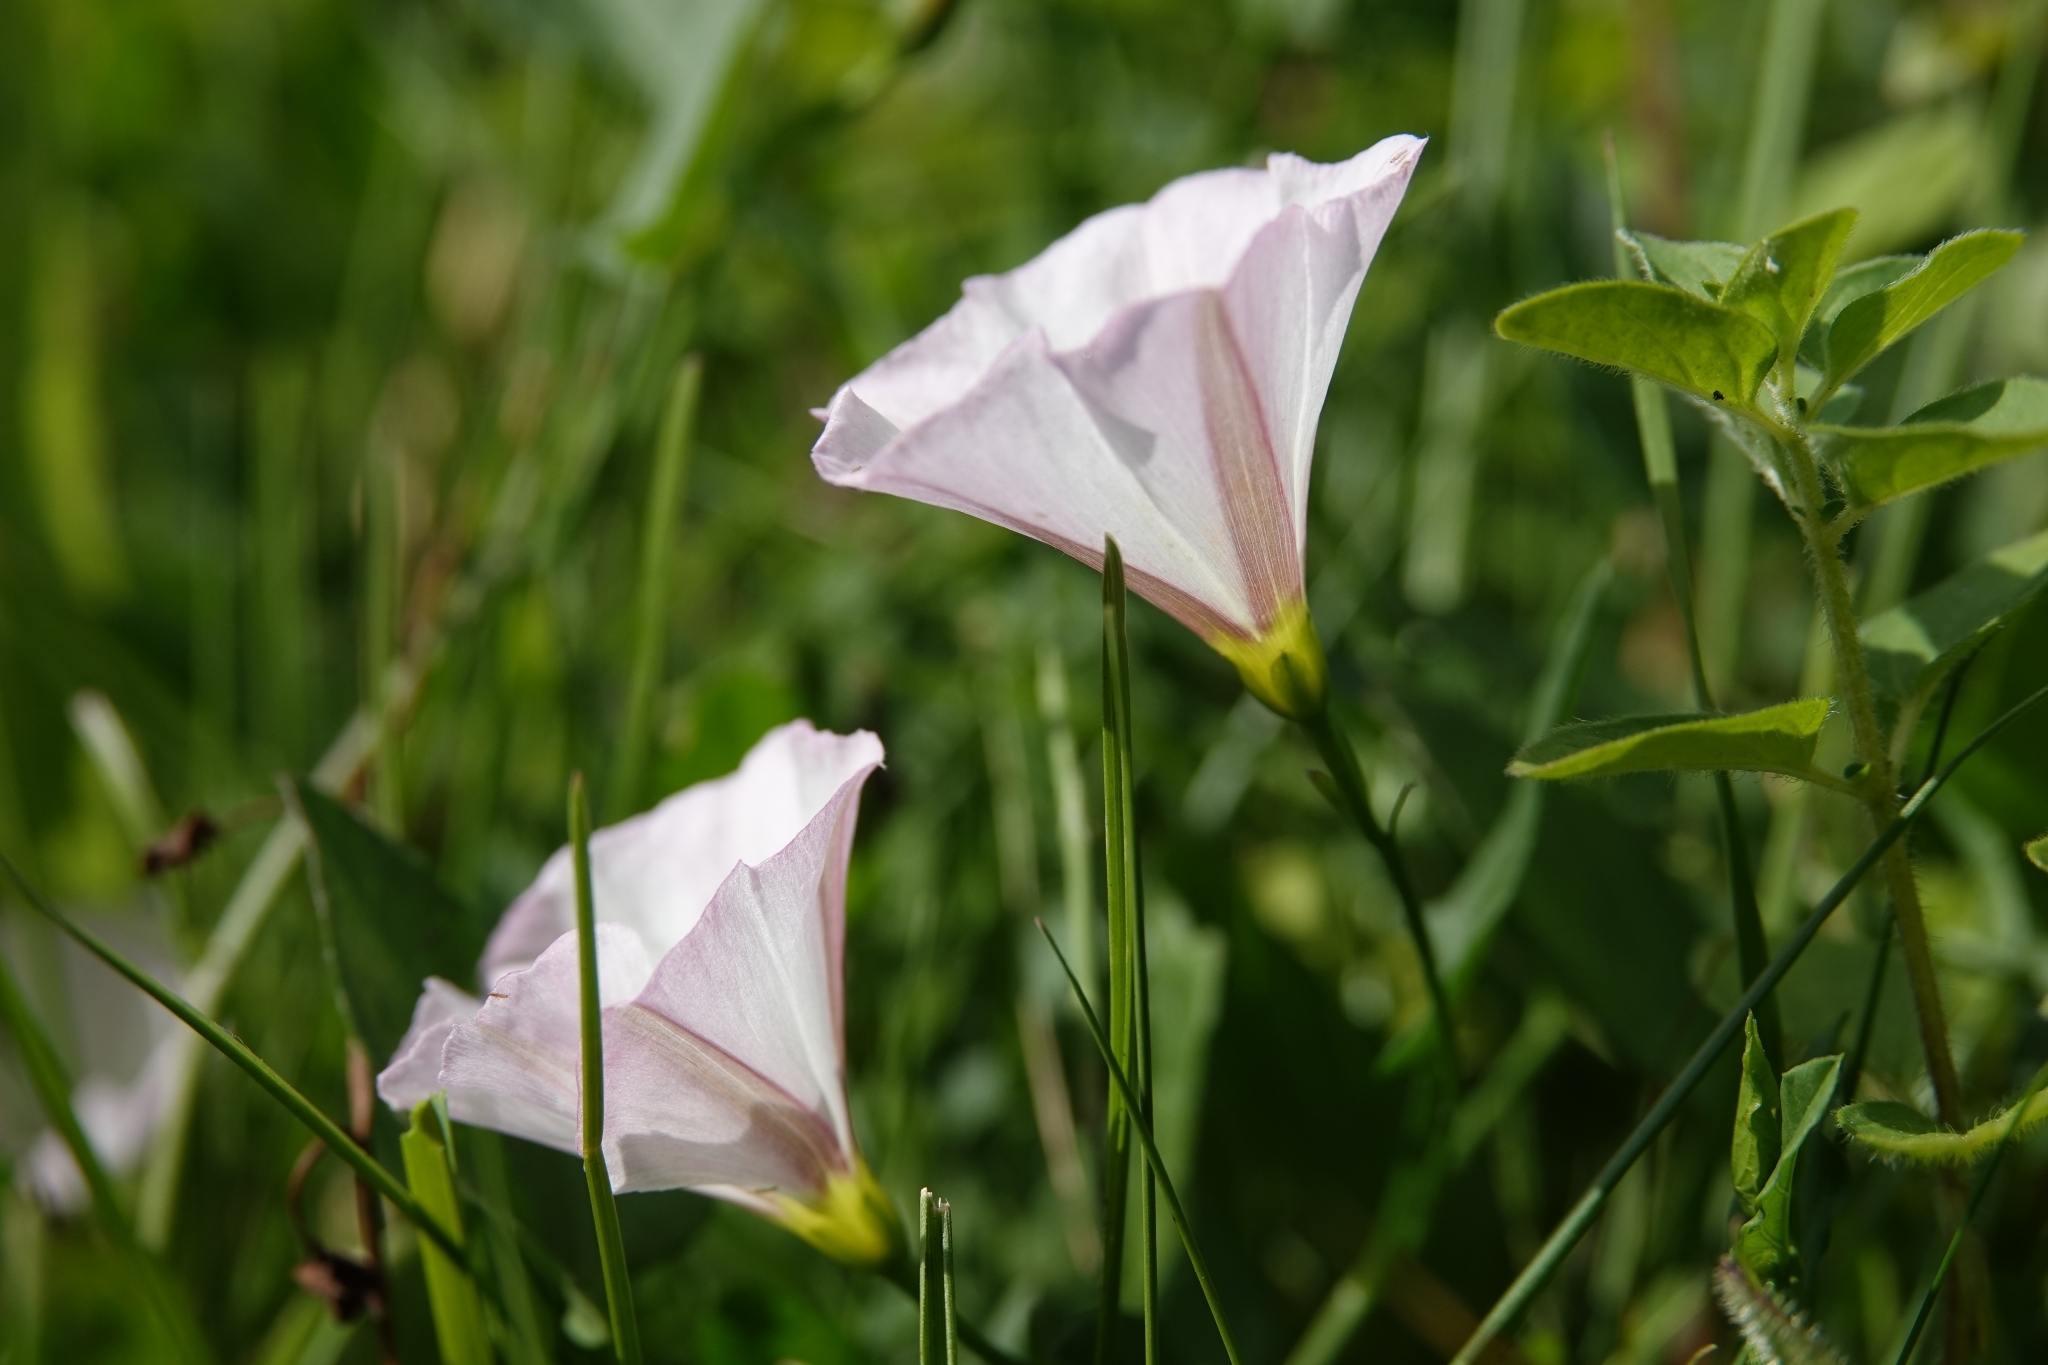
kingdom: Plantae
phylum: Tracheophyta
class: Magnoliopsida
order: Solanales
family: Convolvulaceae
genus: Convolvulus
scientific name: Convolvulus arvensis
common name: Field bindweed
